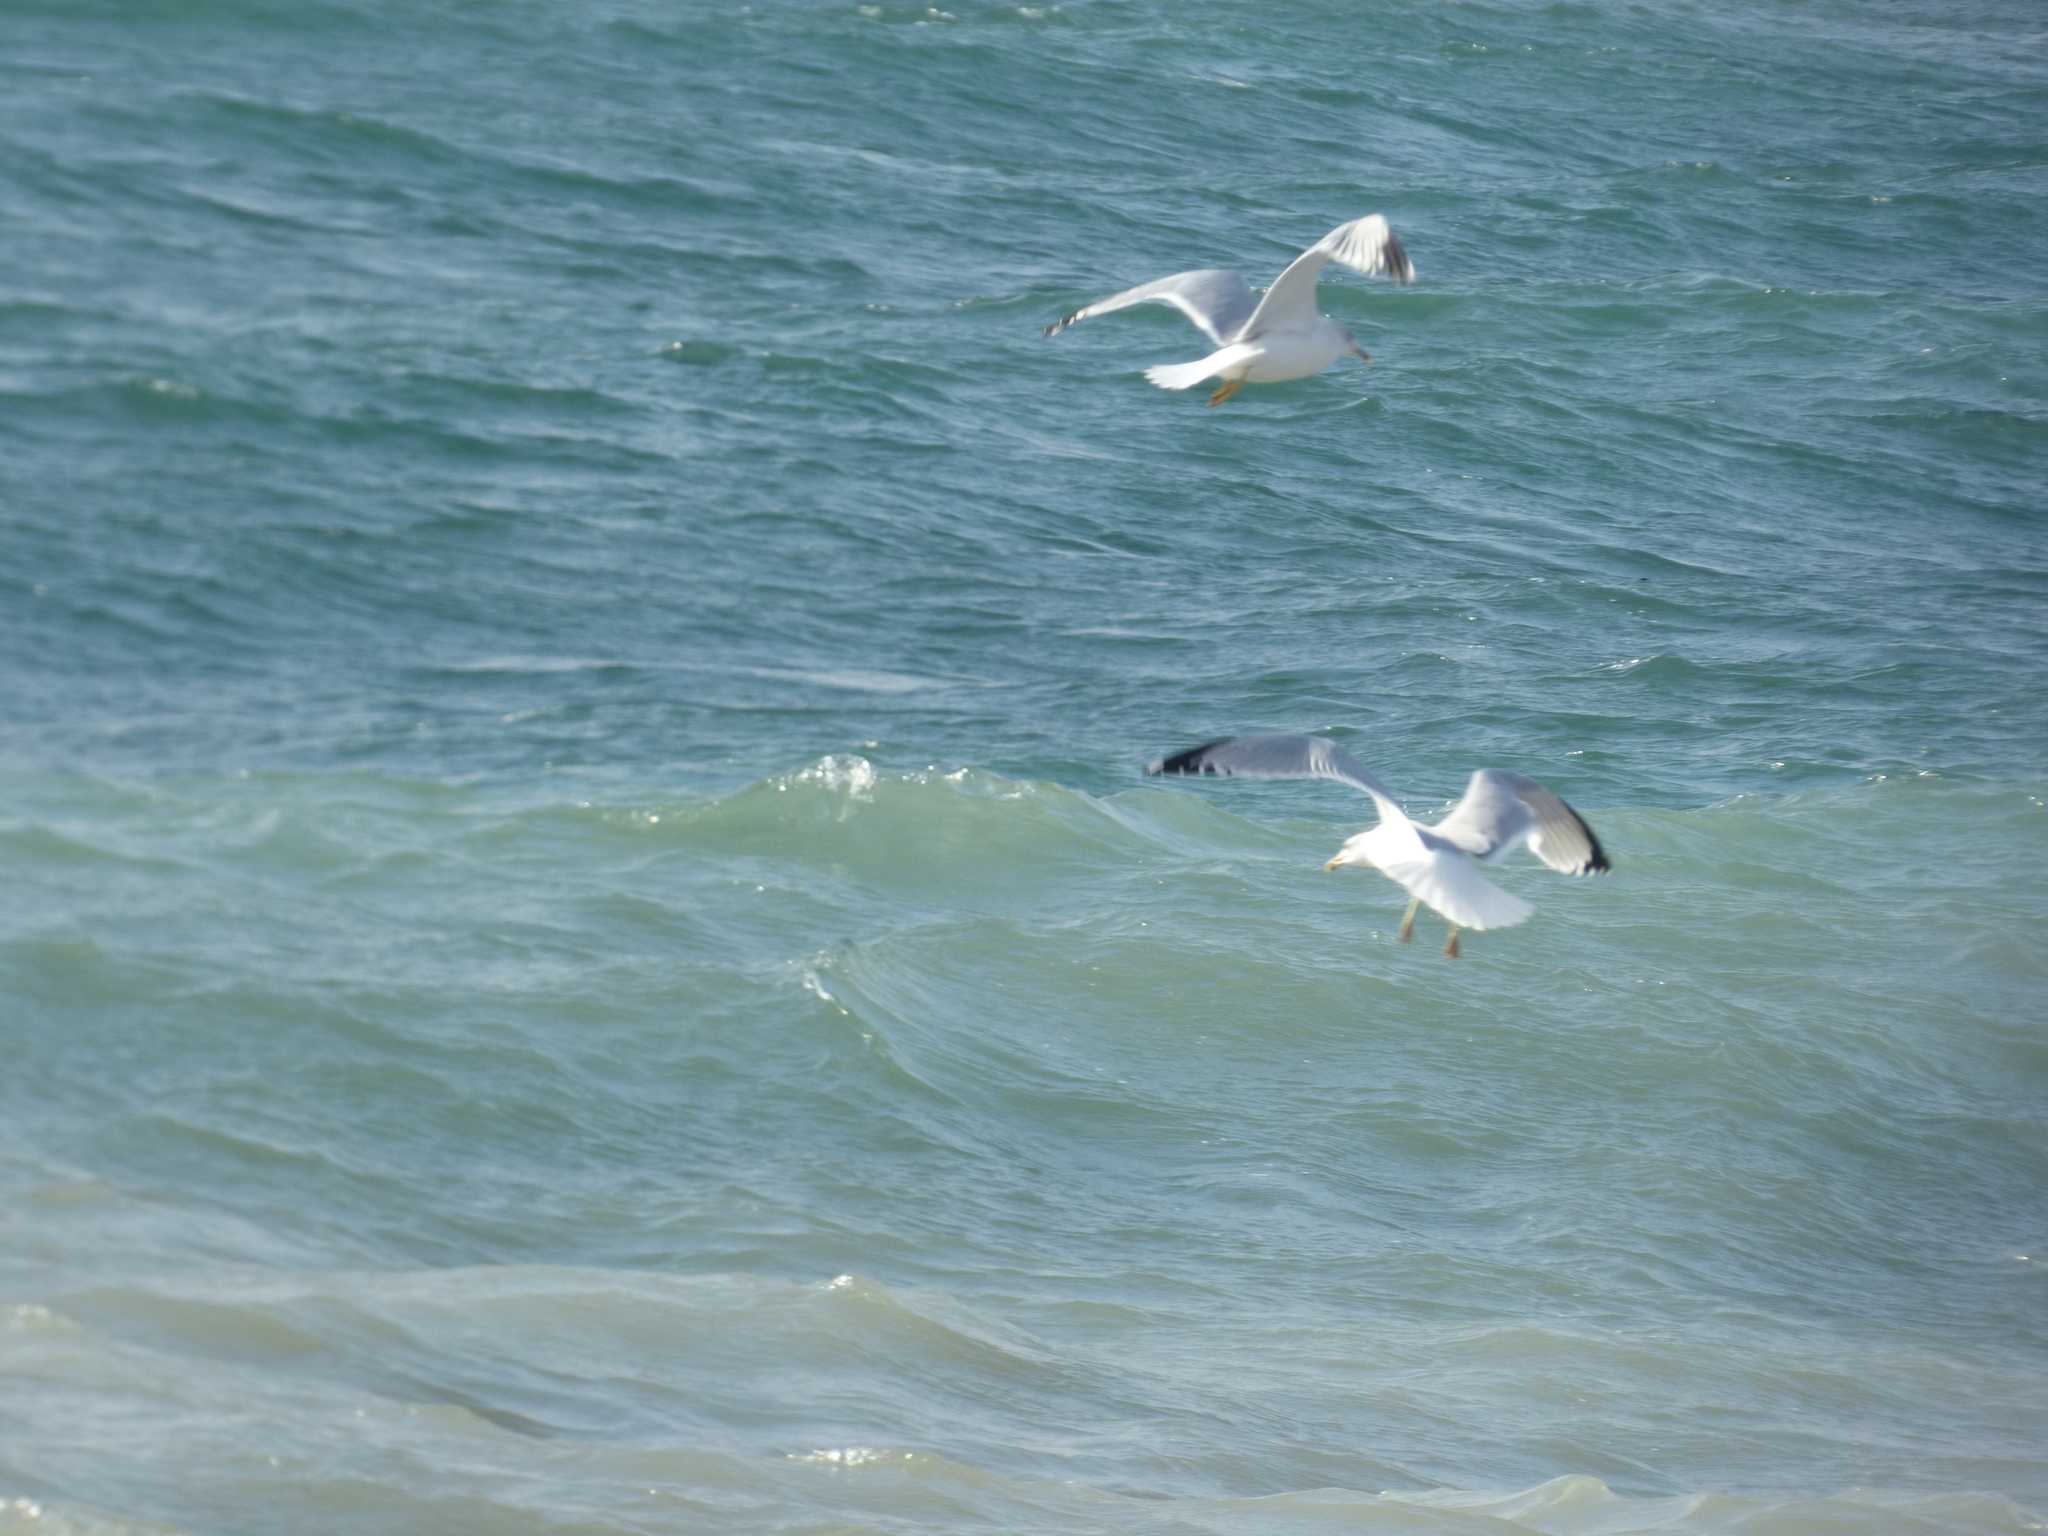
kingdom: Animalia
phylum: Chordata
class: Aves
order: Charadriiformes
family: Laridae
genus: Larus
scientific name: Larus delawarensis
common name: Ring-billed gull
